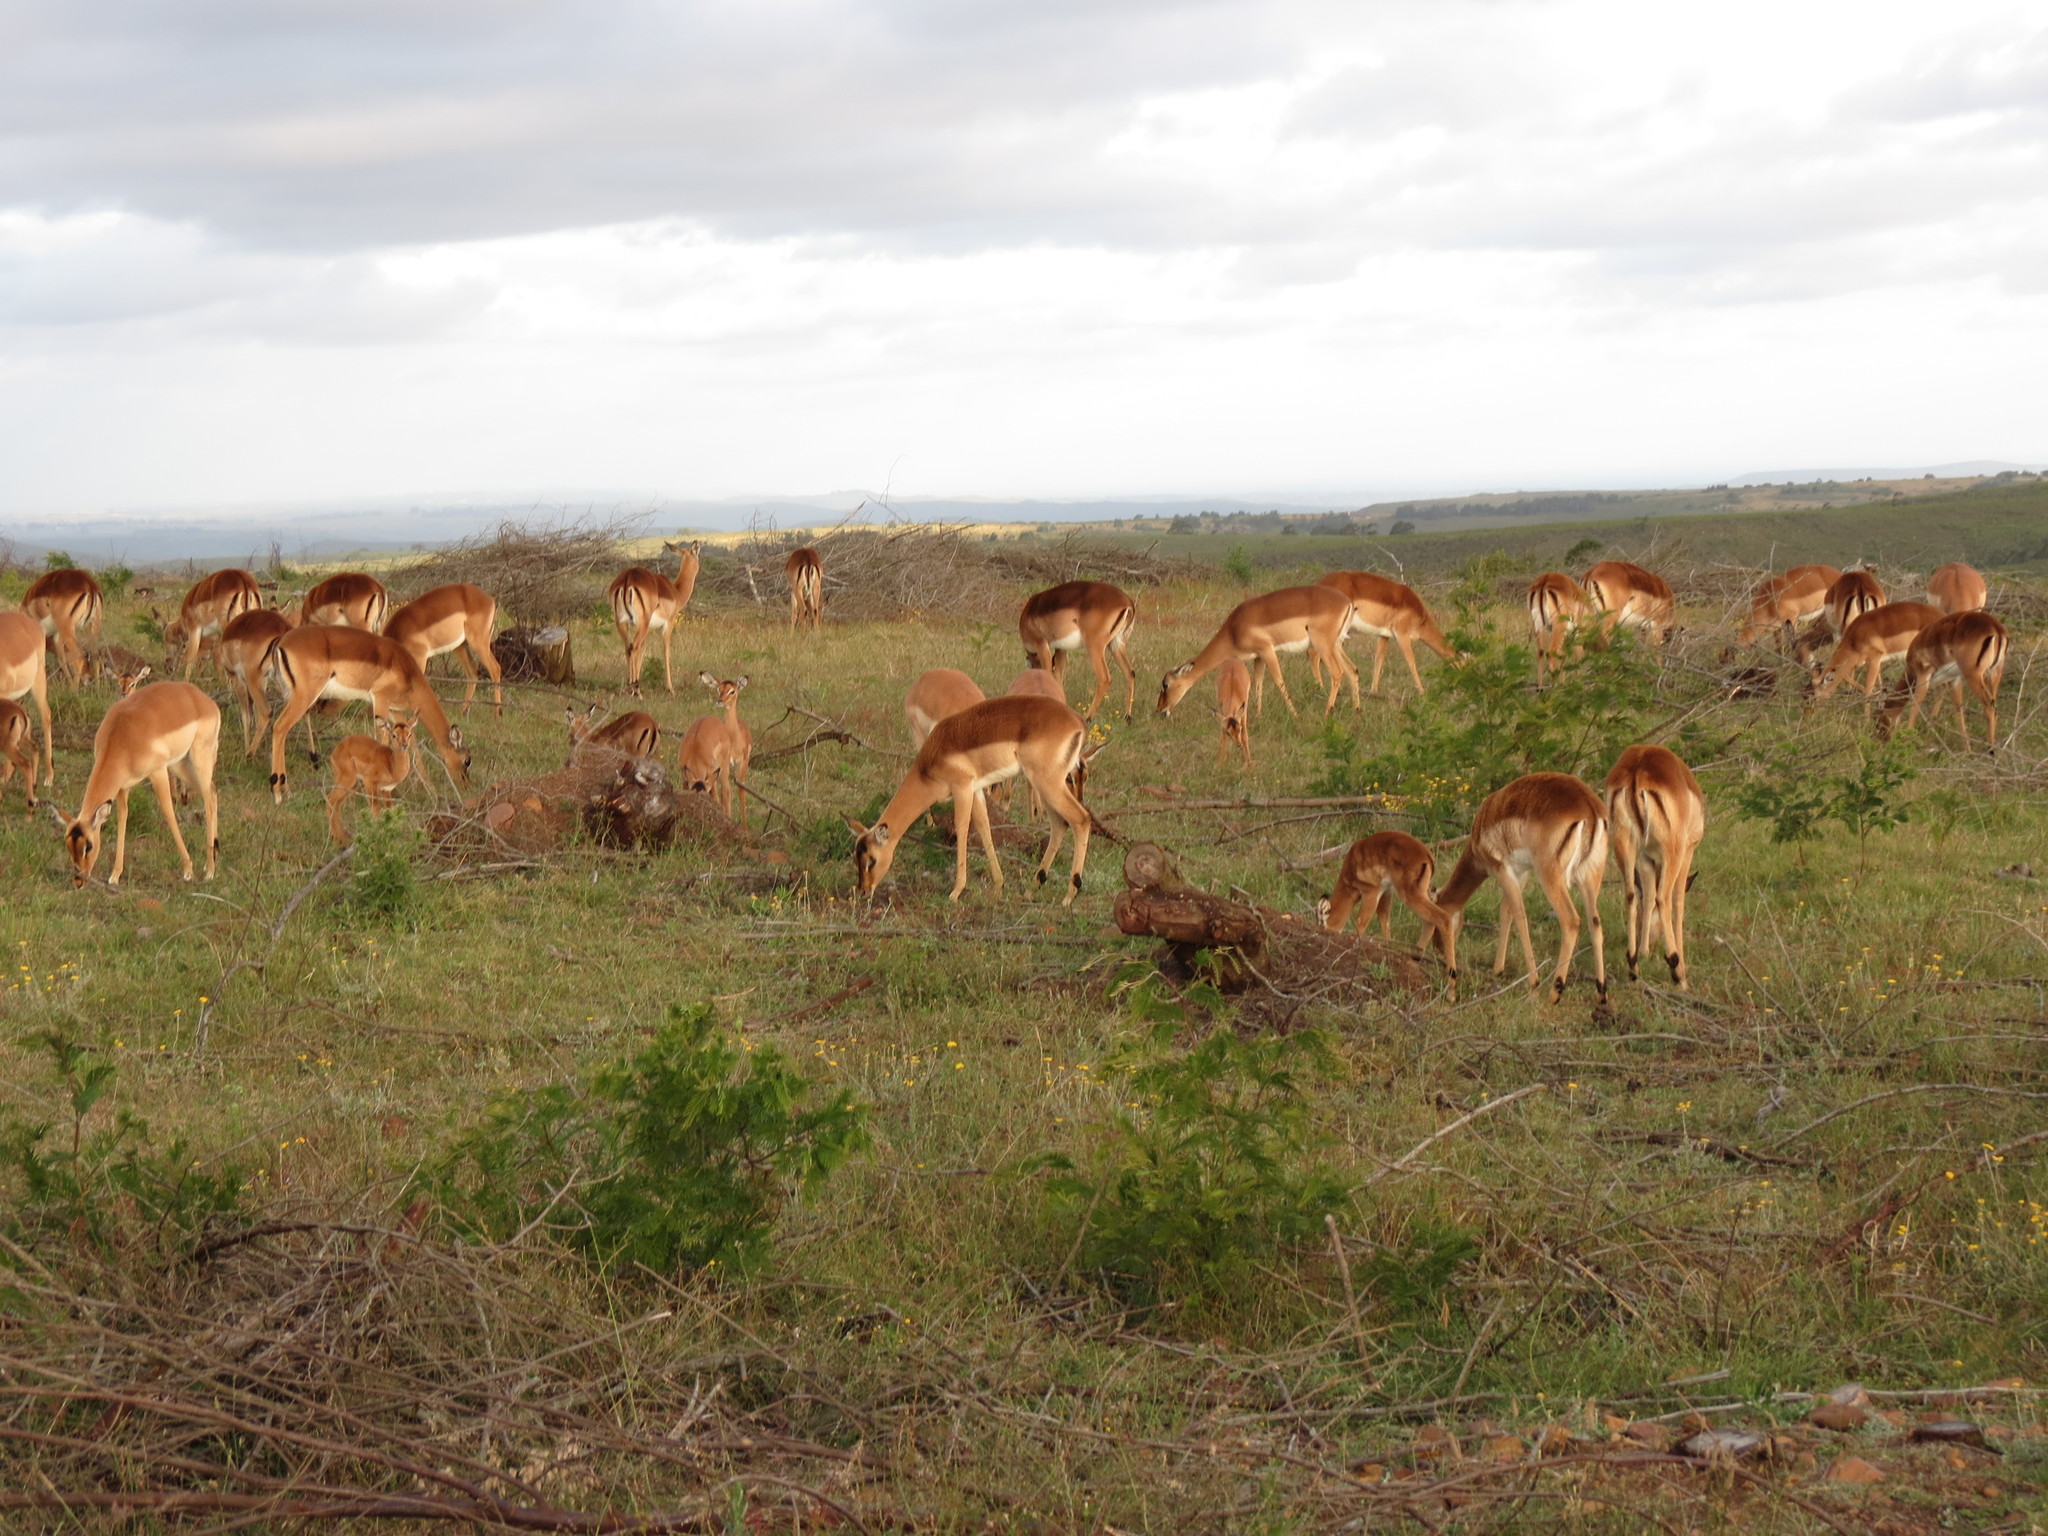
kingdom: Animalia
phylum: Chordata
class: Mammalia
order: Artiodactyla
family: Bovidae
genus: Aepyceros
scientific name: Aepyceros melampus
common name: Impala
